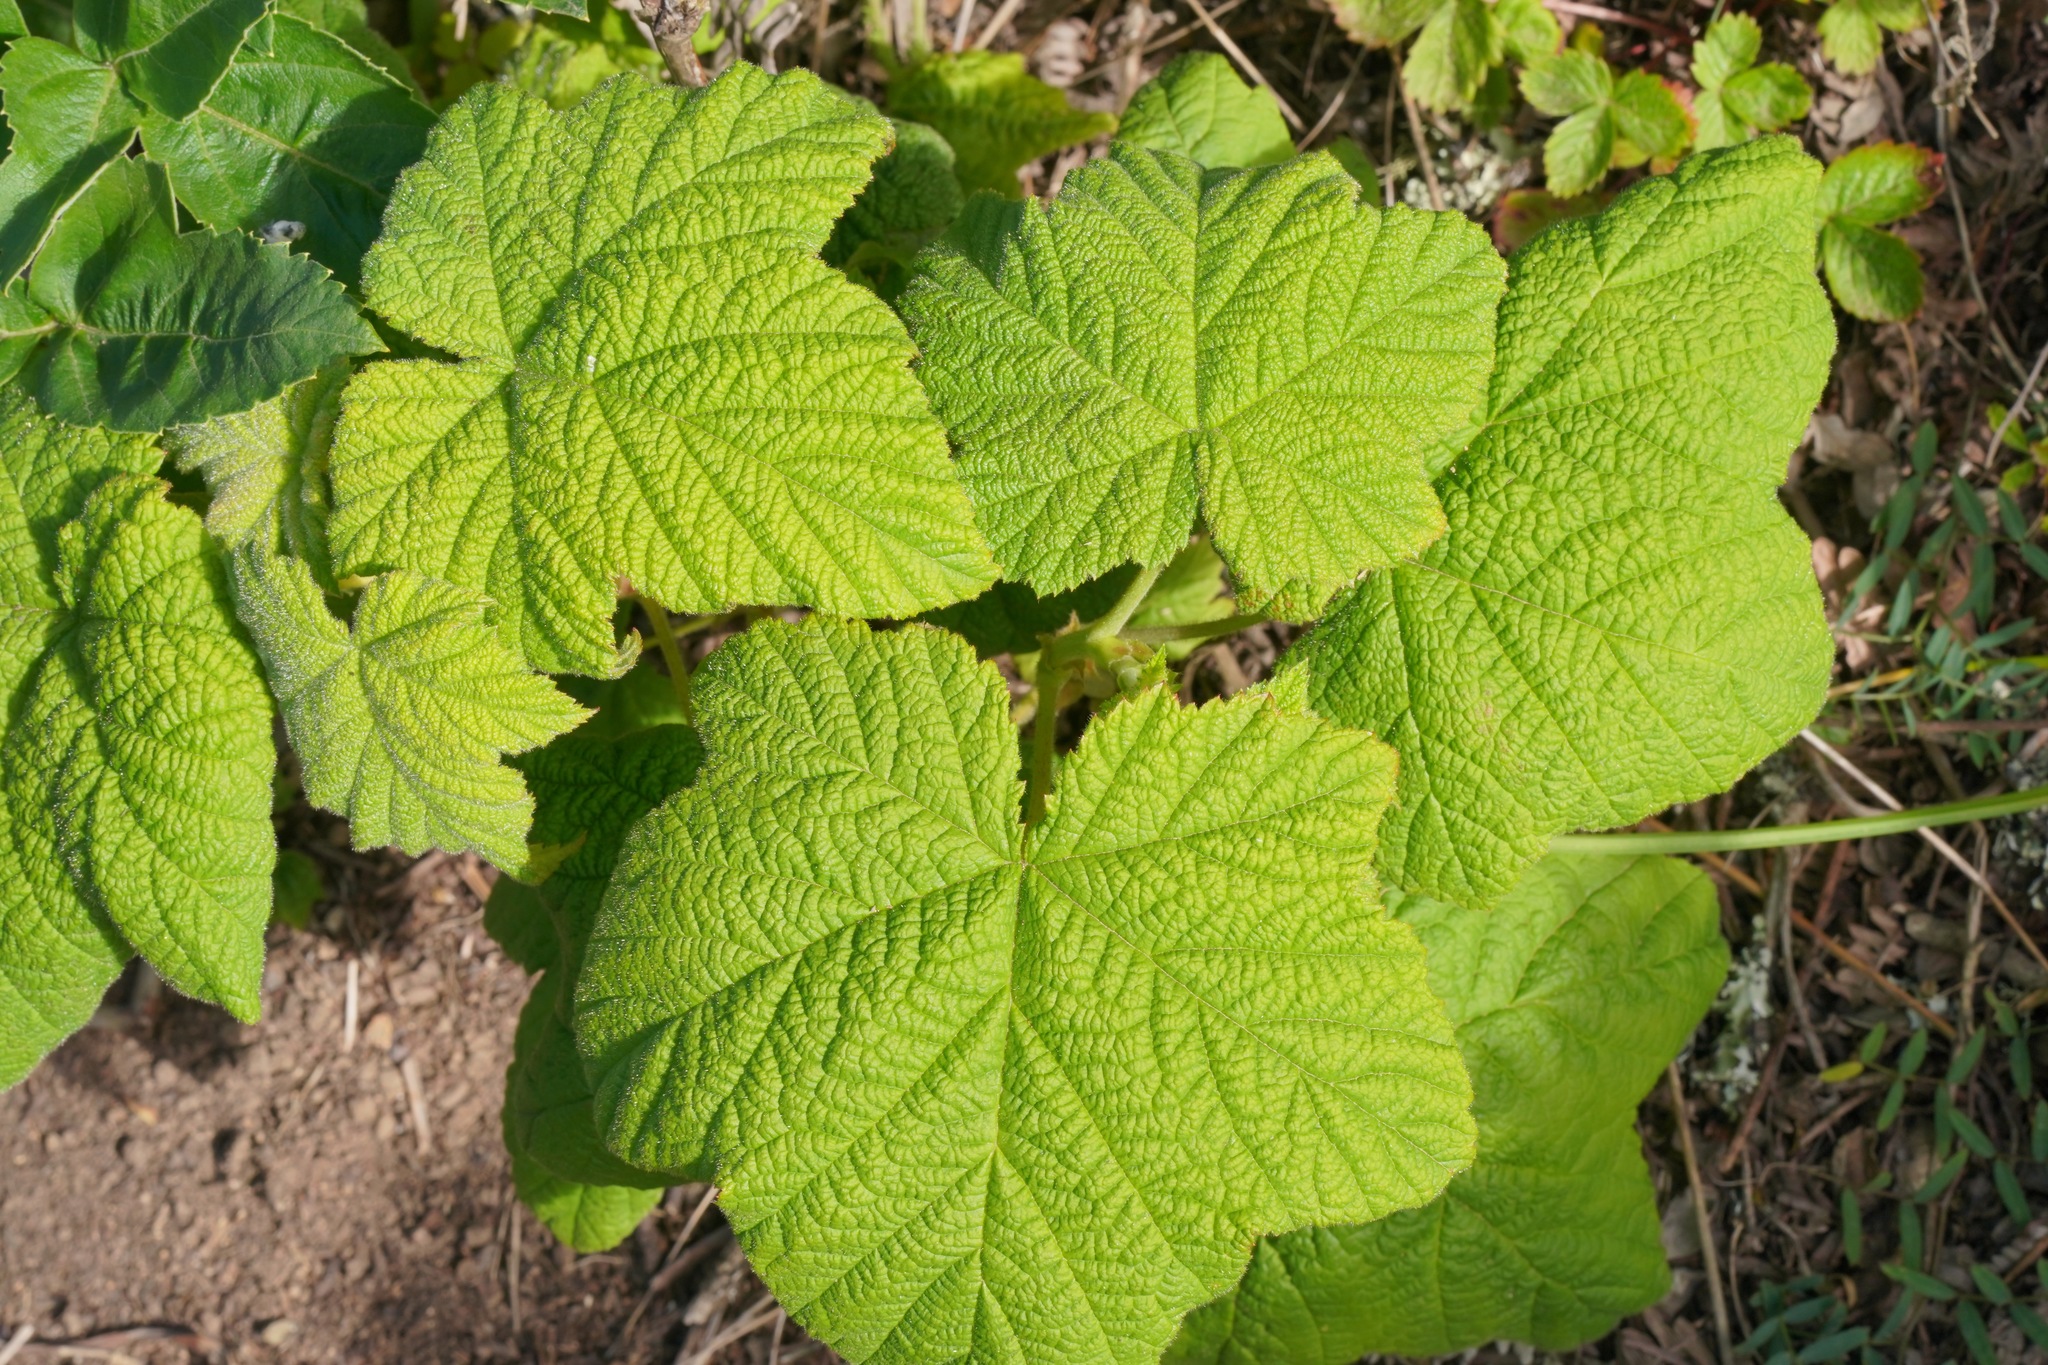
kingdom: Plantae
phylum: Tracheophyta
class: Magnoliopsida
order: Rosales
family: Rosaceae
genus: Rubus
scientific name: Rubus parviflorus
